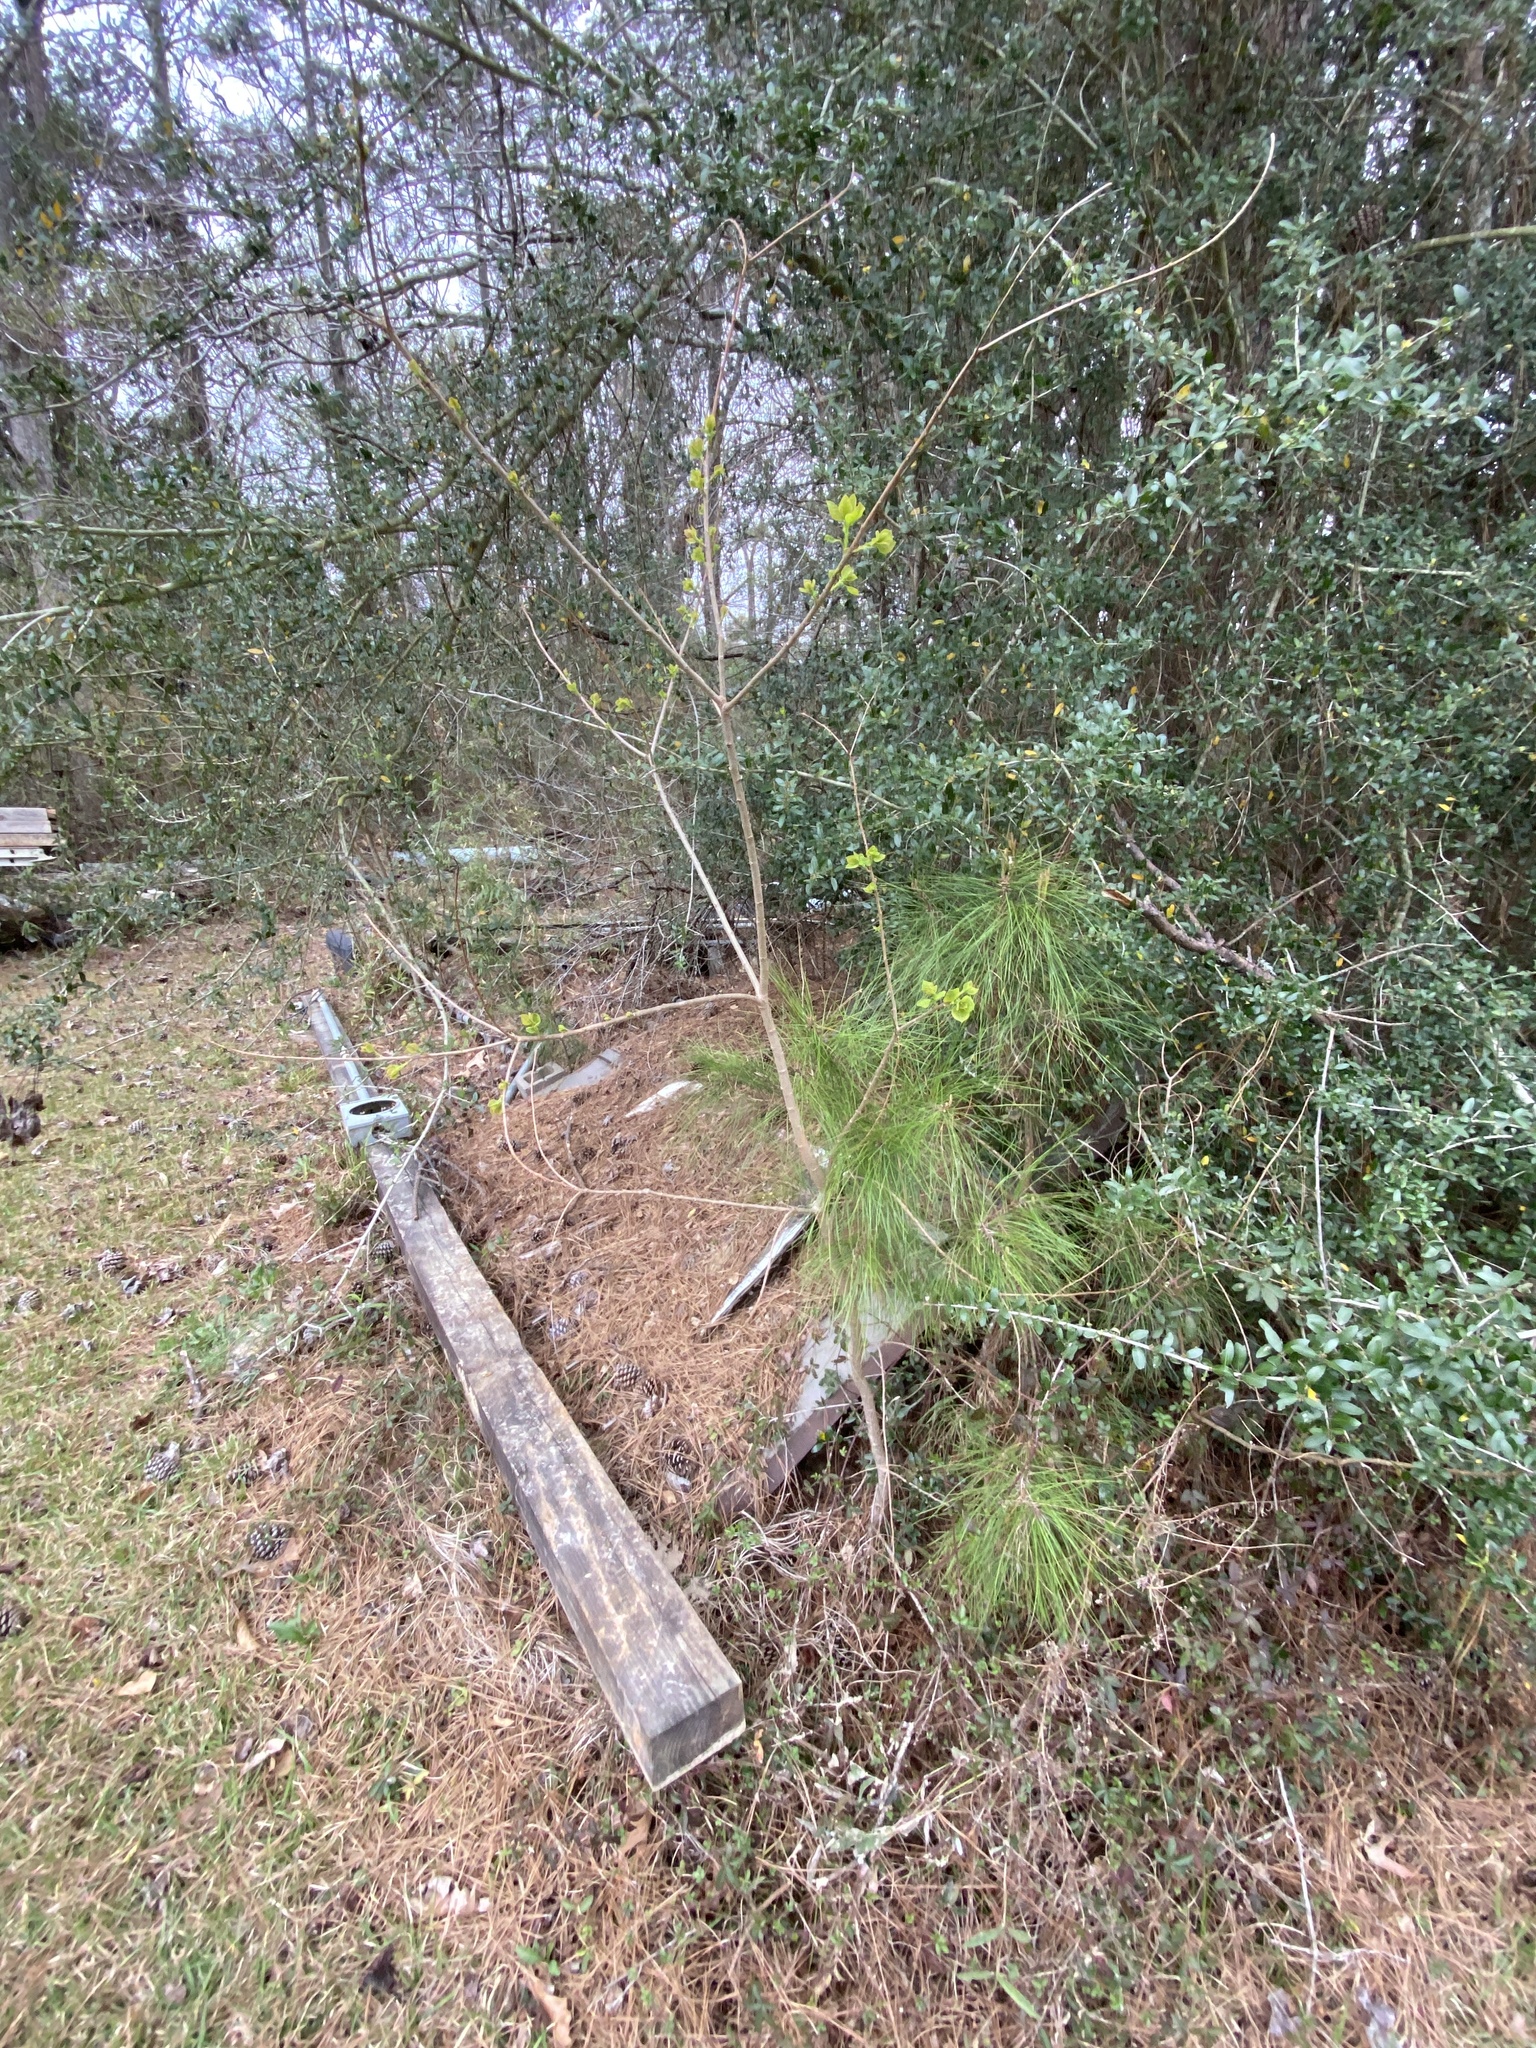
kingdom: Plantae
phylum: Tracheophyta
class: Magnoliopsida
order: Malpighiales
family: Euphorbiaceae
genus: Triadica
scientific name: Triadica sebifera
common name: Chinese tallow
